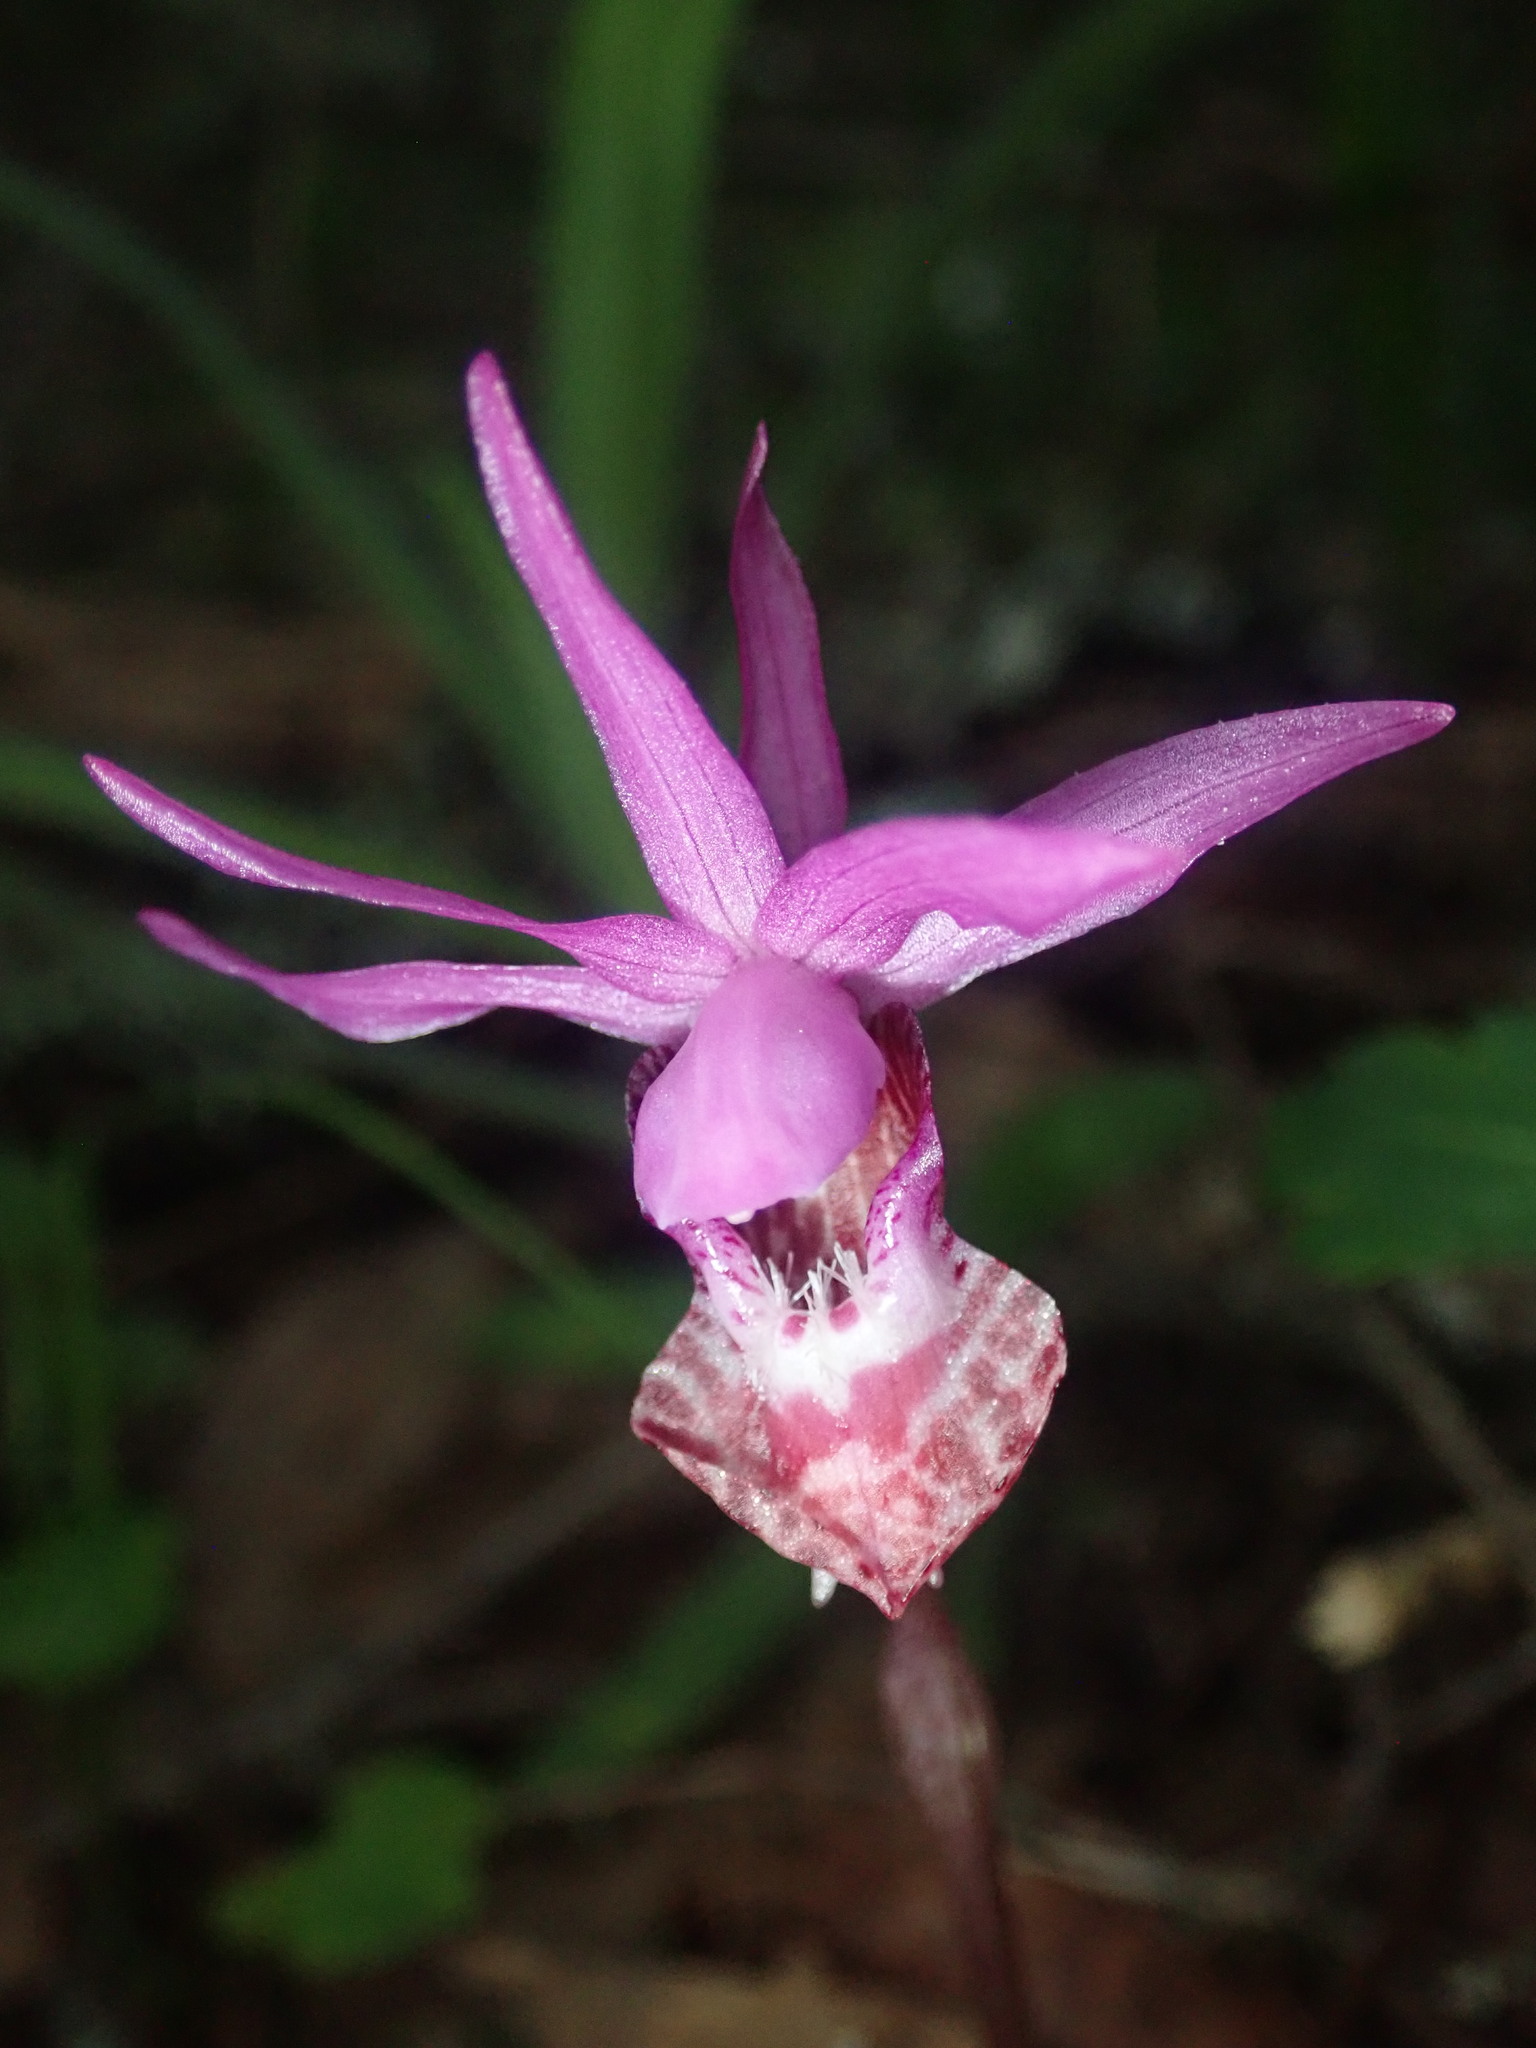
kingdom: Plantae
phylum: Tracheophyta
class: Liliopsida
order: Asparagales
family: Orchidaceae
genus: Calypso
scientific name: Calypso bulbosa
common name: Calypso
